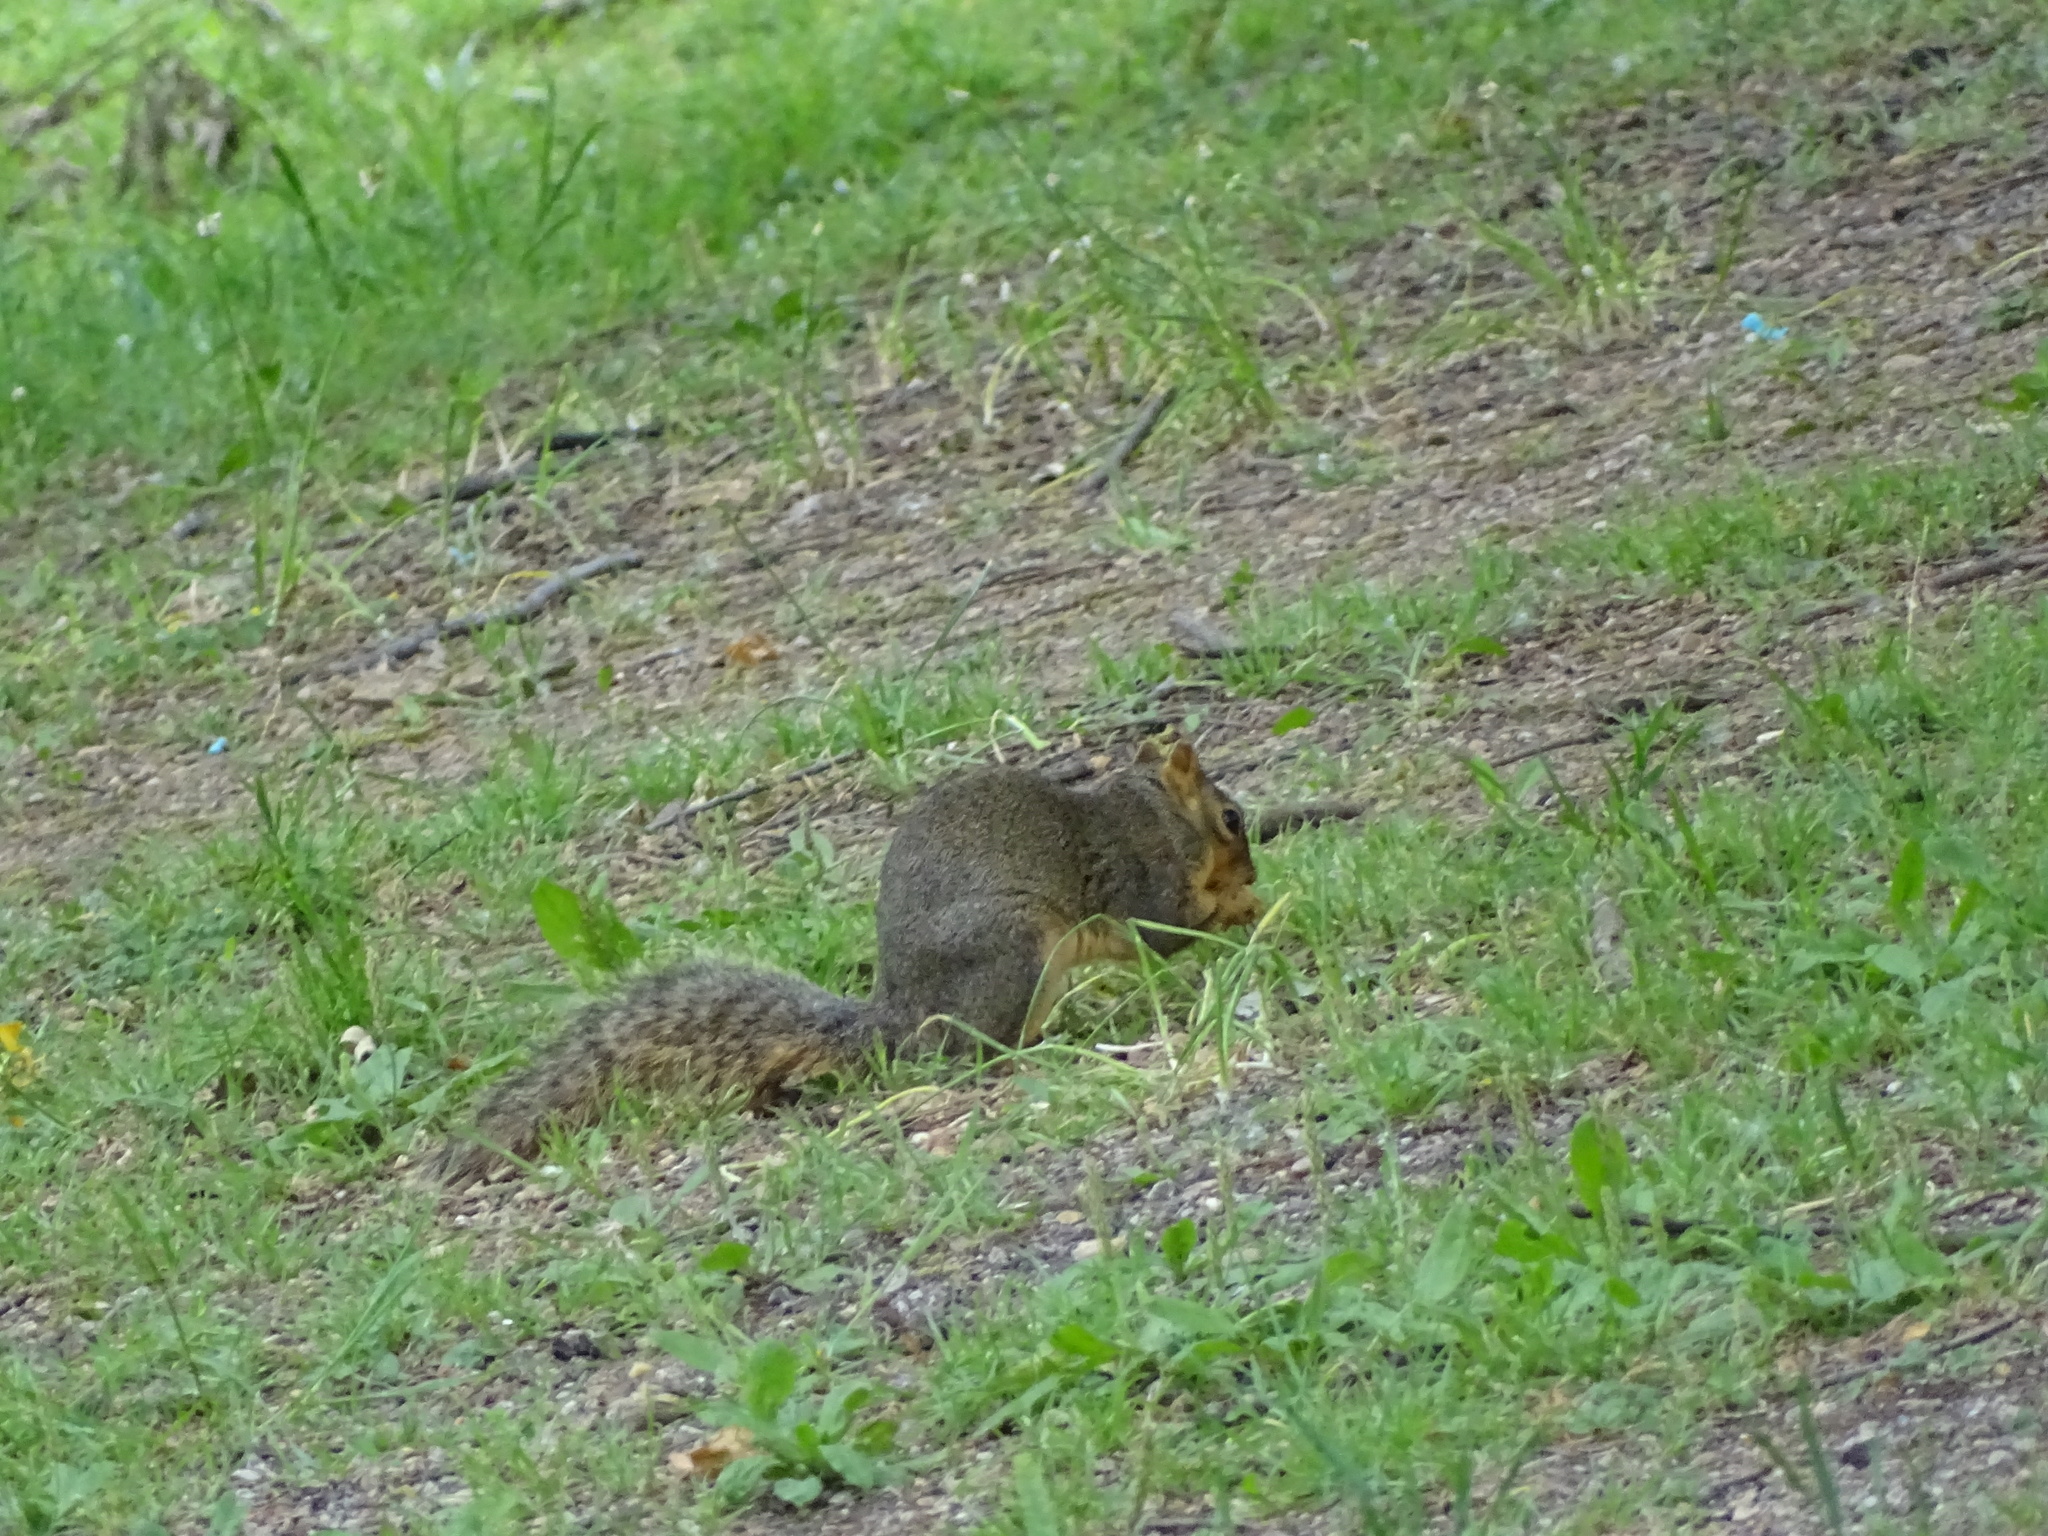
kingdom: Animalia
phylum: Chordata
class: Mammalia
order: Rodentia
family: Sciuridae
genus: Sciurus
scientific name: Sciurus niger
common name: Fox squirrel
